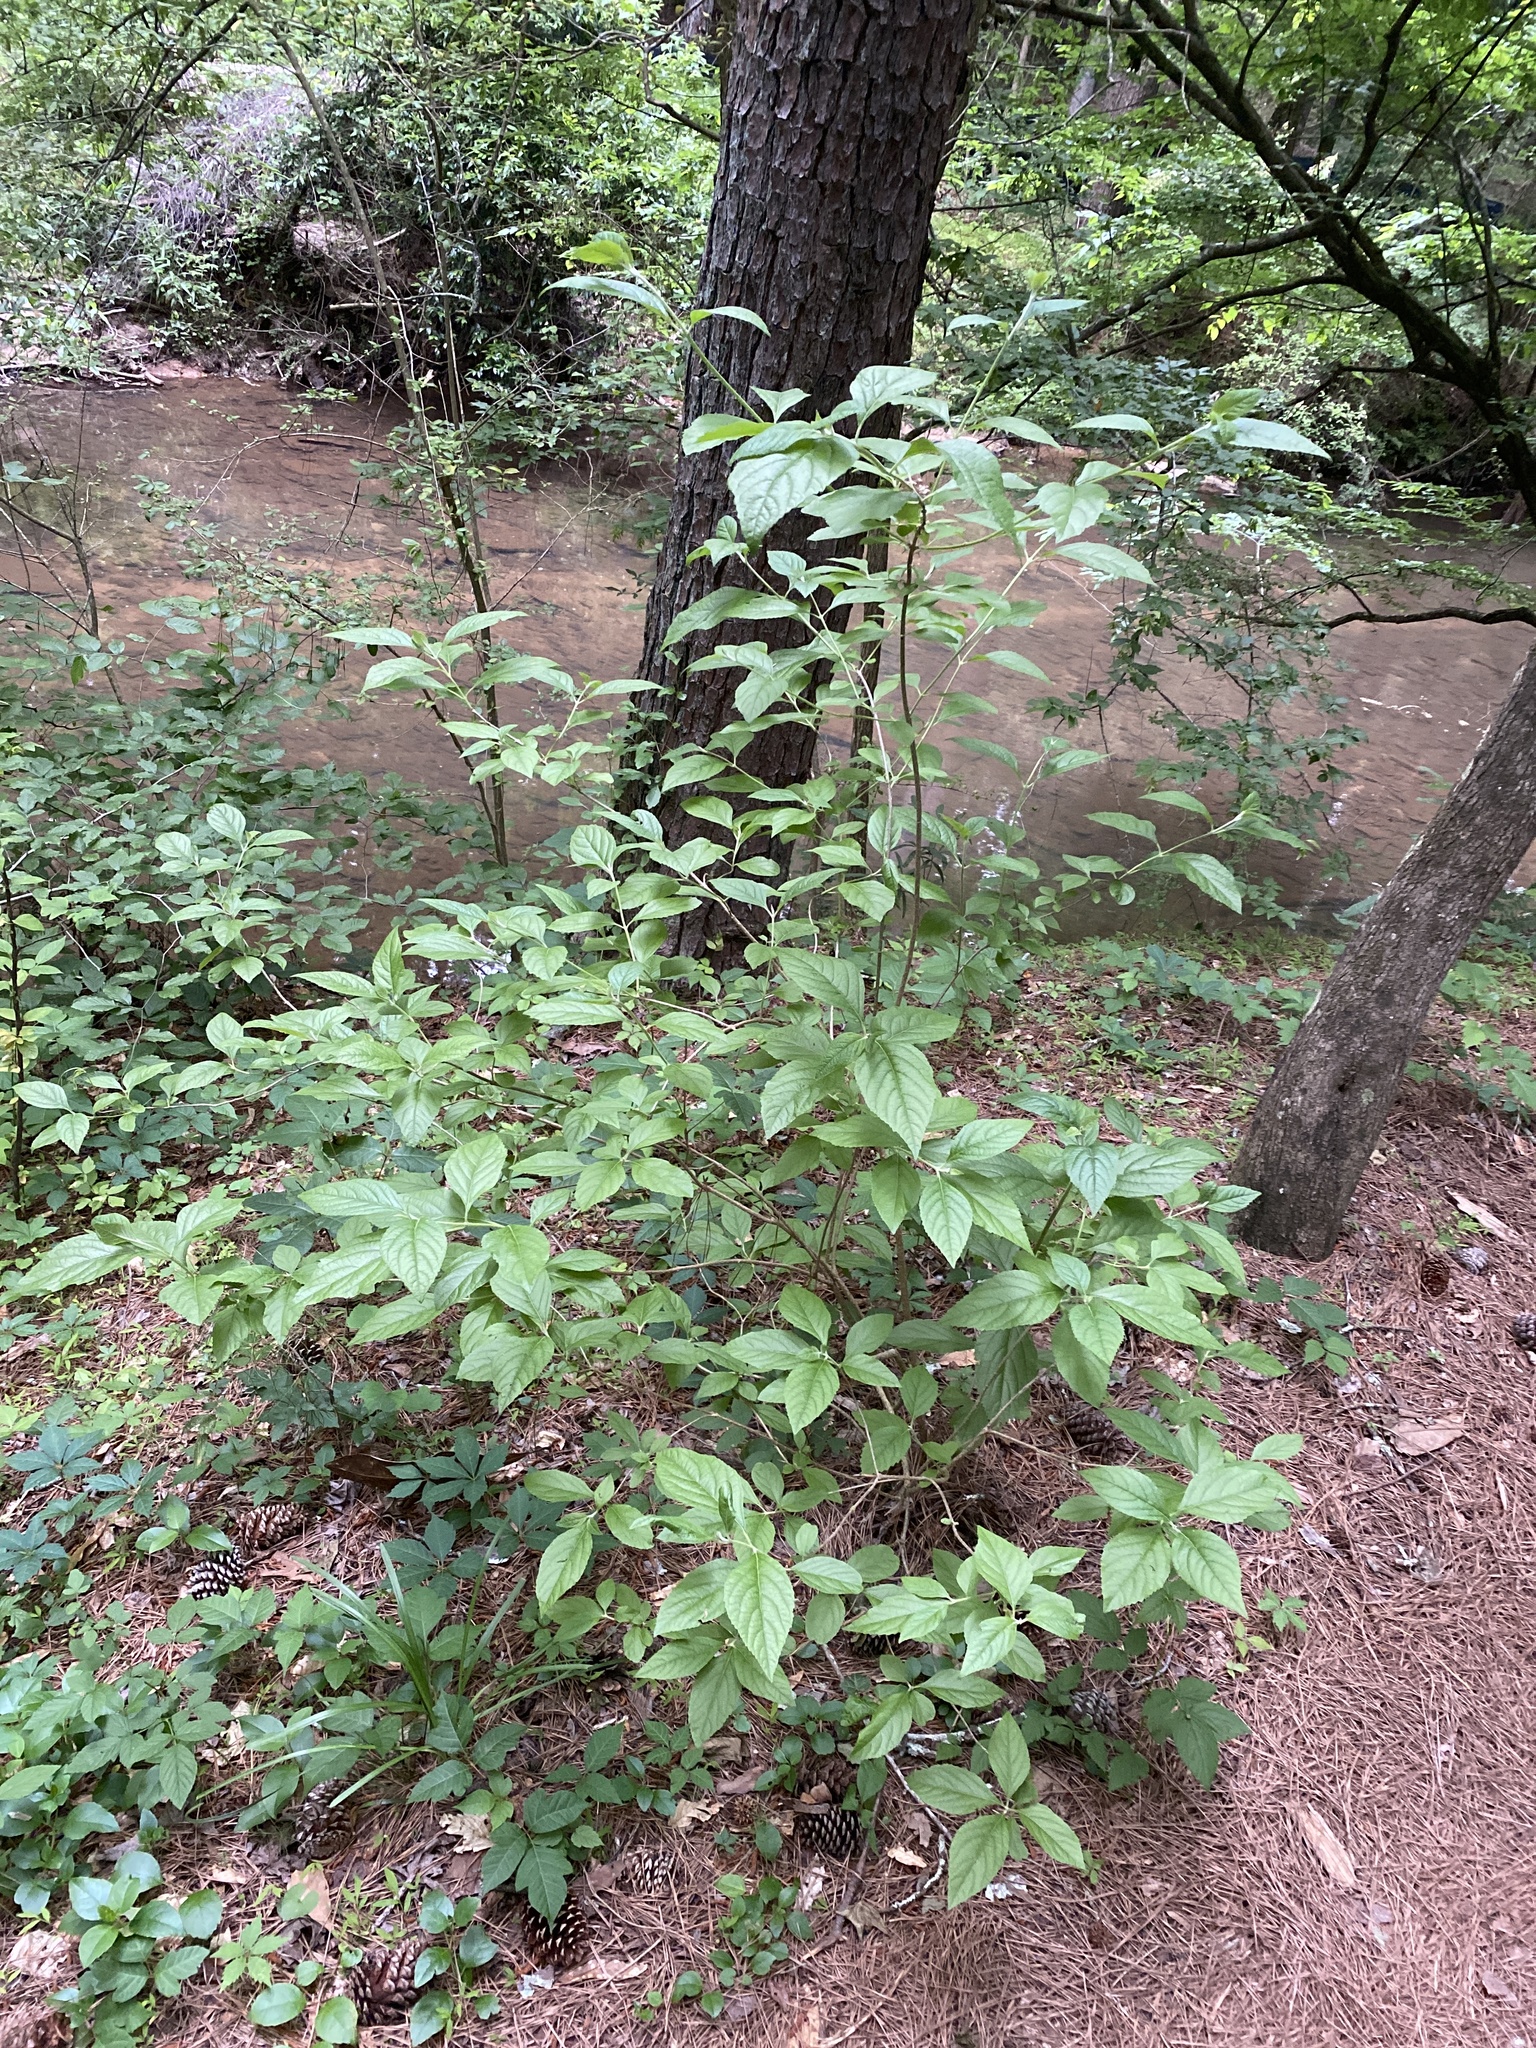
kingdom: Plantae
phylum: Tracheophyta
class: Magnoliopsida
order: Lamiales
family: Lamiaceae
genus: Callicarpa
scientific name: Callicarpa americana
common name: American beautyberry
